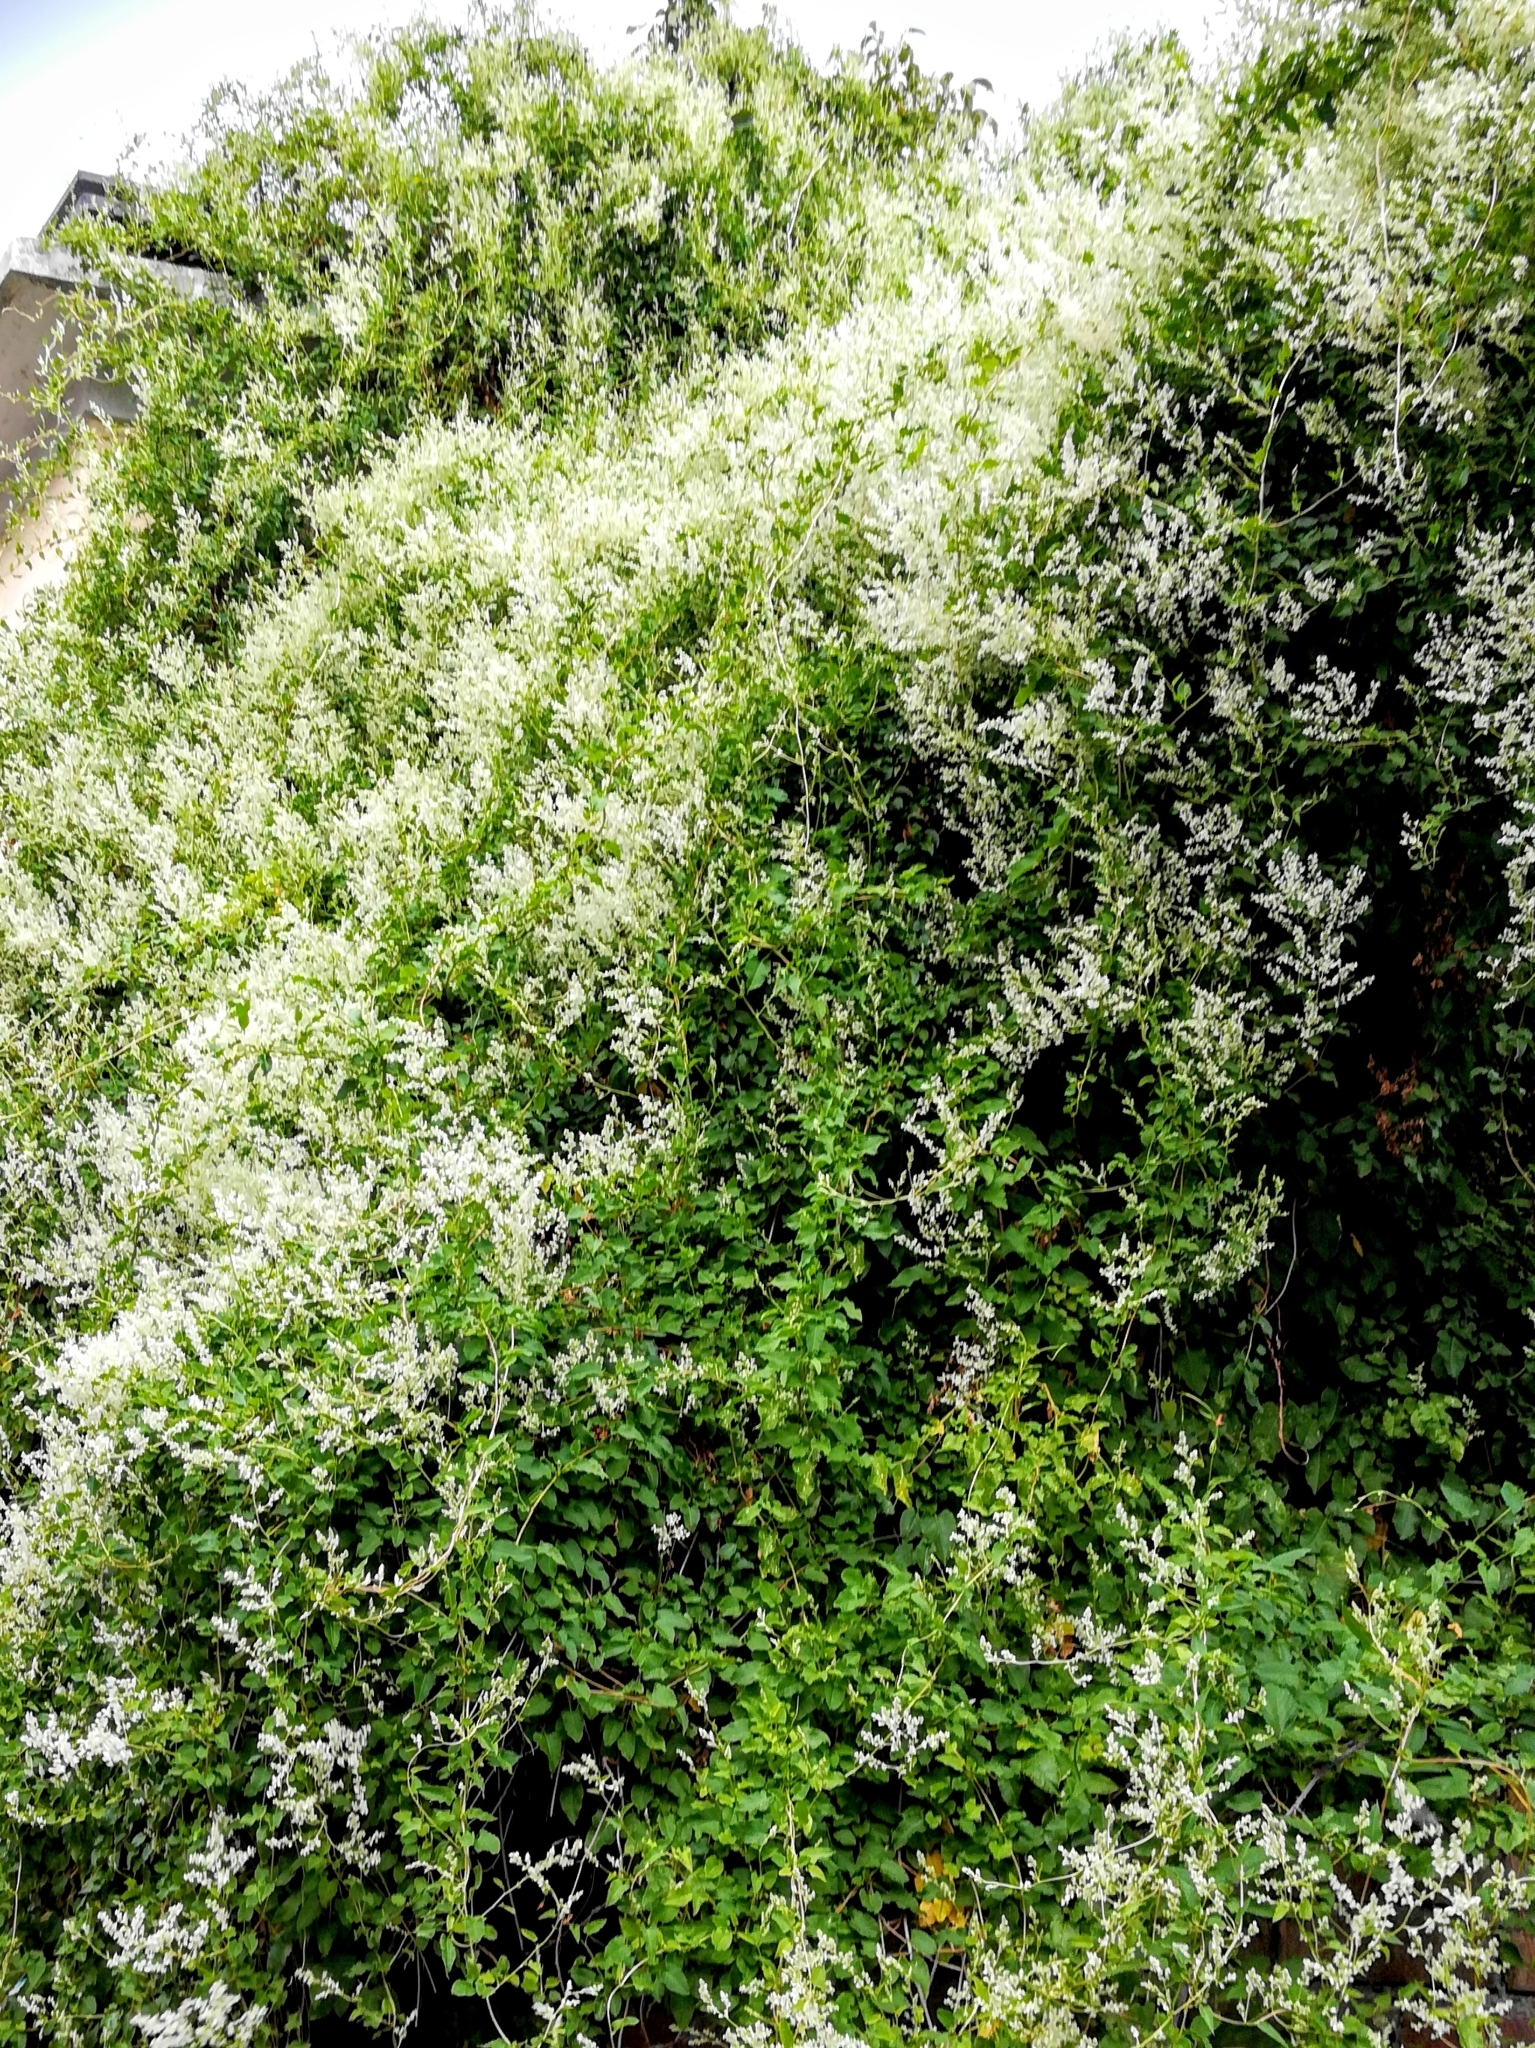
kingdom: Plantae
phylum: Tracheophyta
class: Magnoliopsida
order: Caryophyllales
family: Polygonaceae
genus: Fallopia
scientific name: Fallopia baldschuanica
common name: Russian-vine
